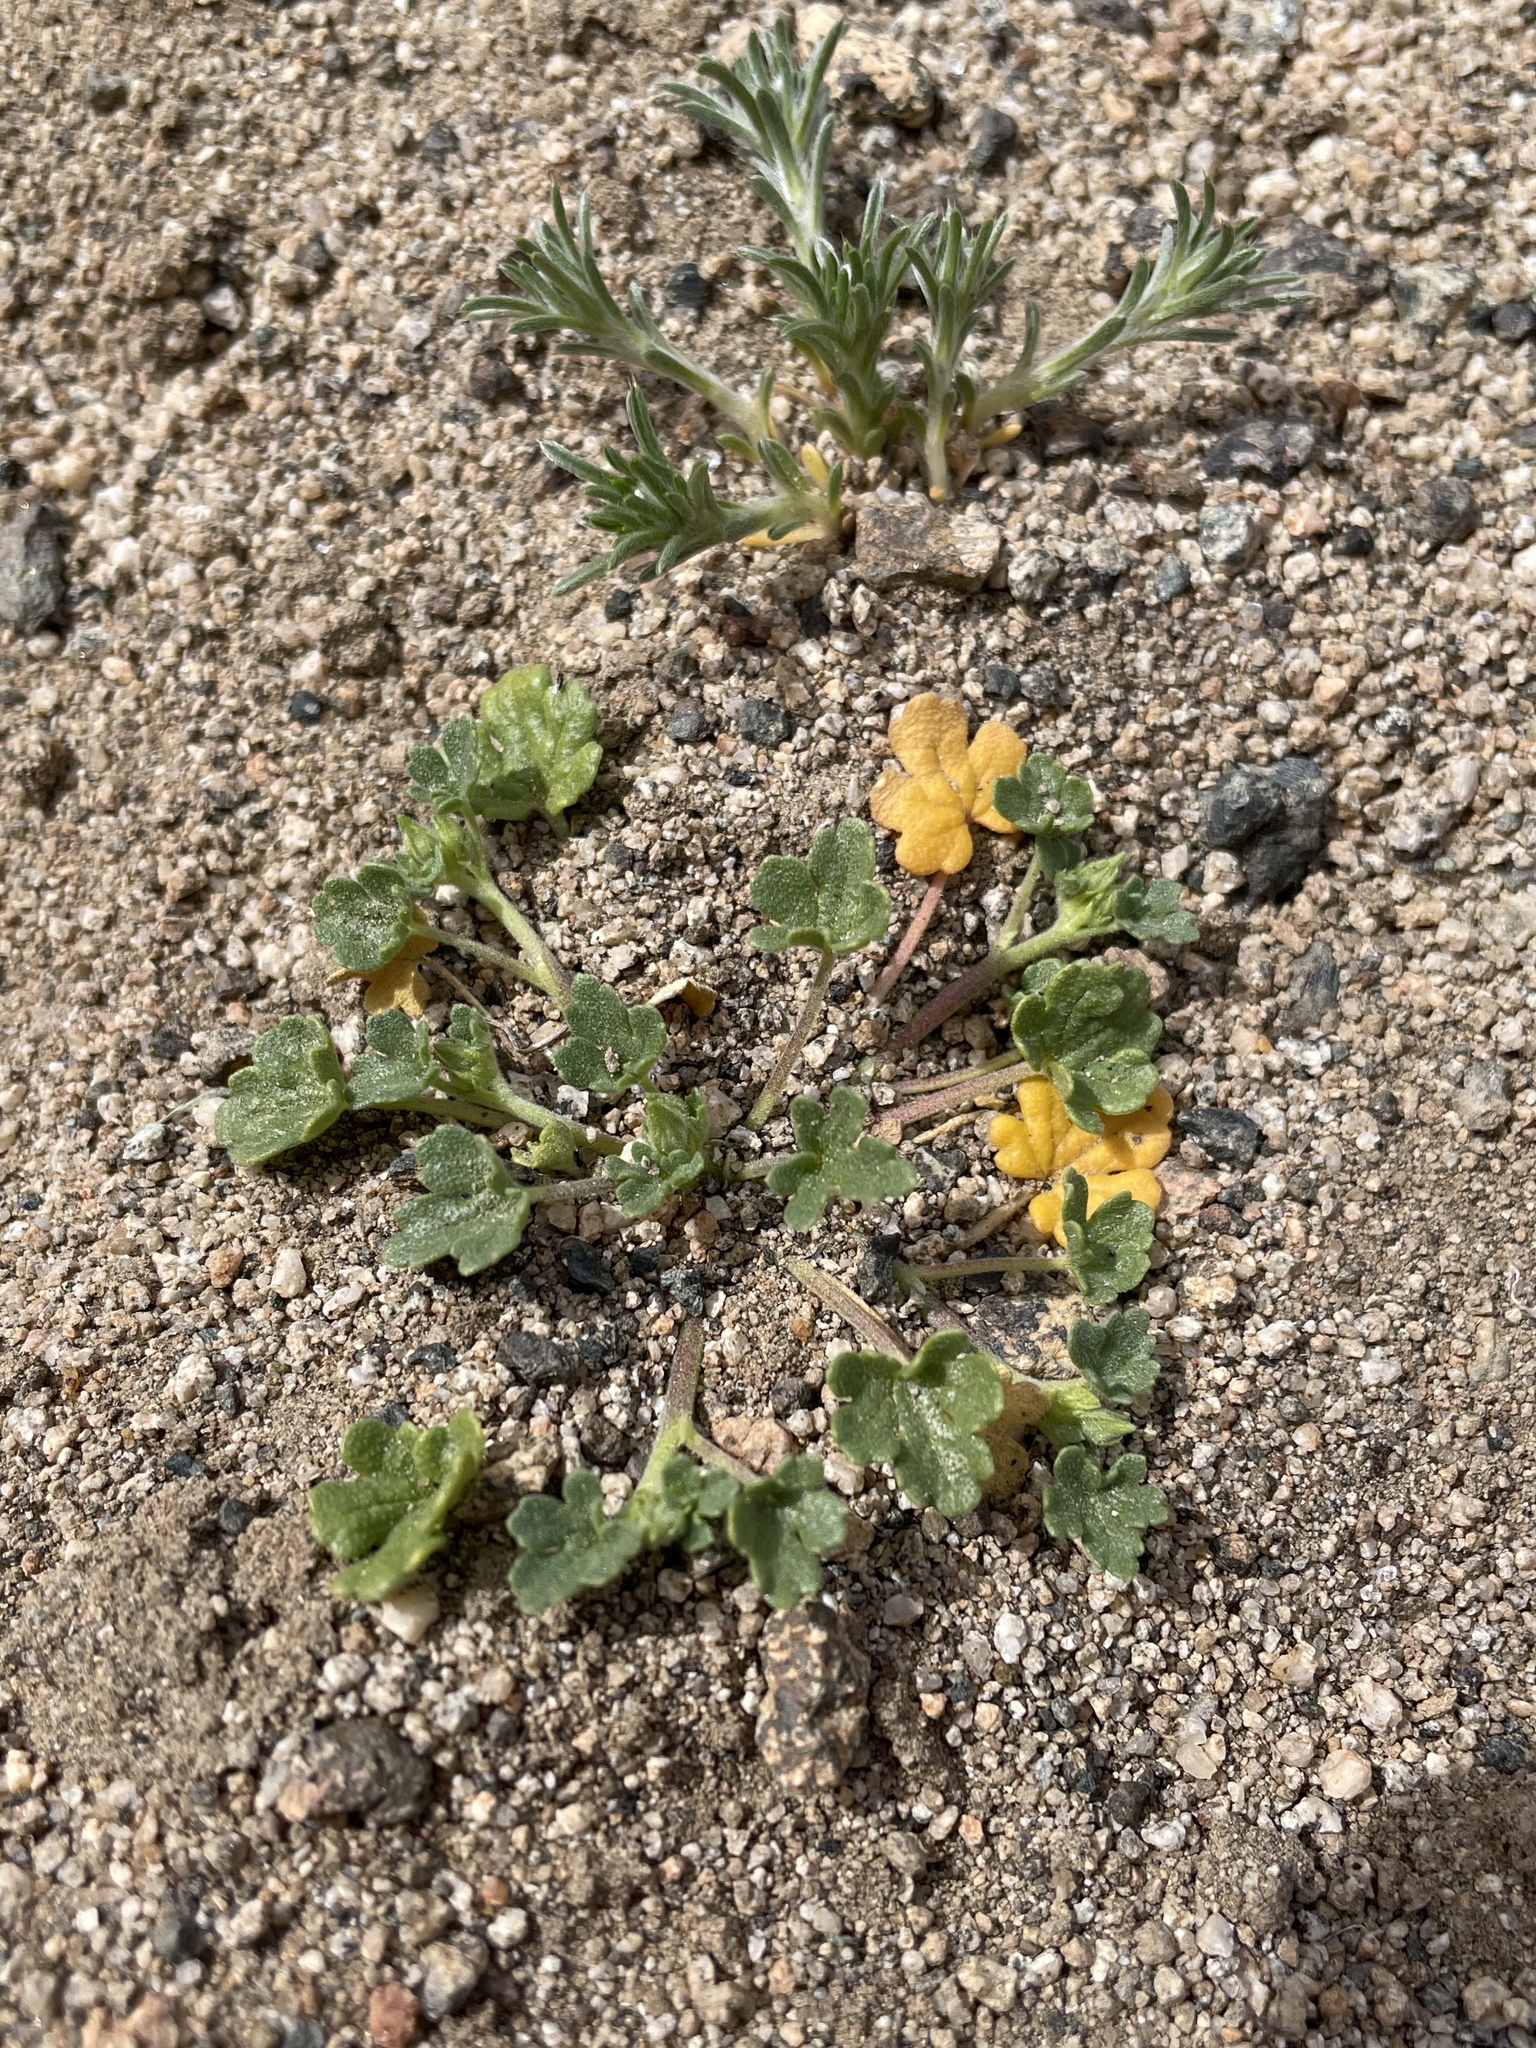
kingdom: Plantae
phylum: Tracheophyta
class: Magnoliopsida
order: Malvales
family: Malvaceae
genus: Eremalche
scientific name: Eremalche exilis
